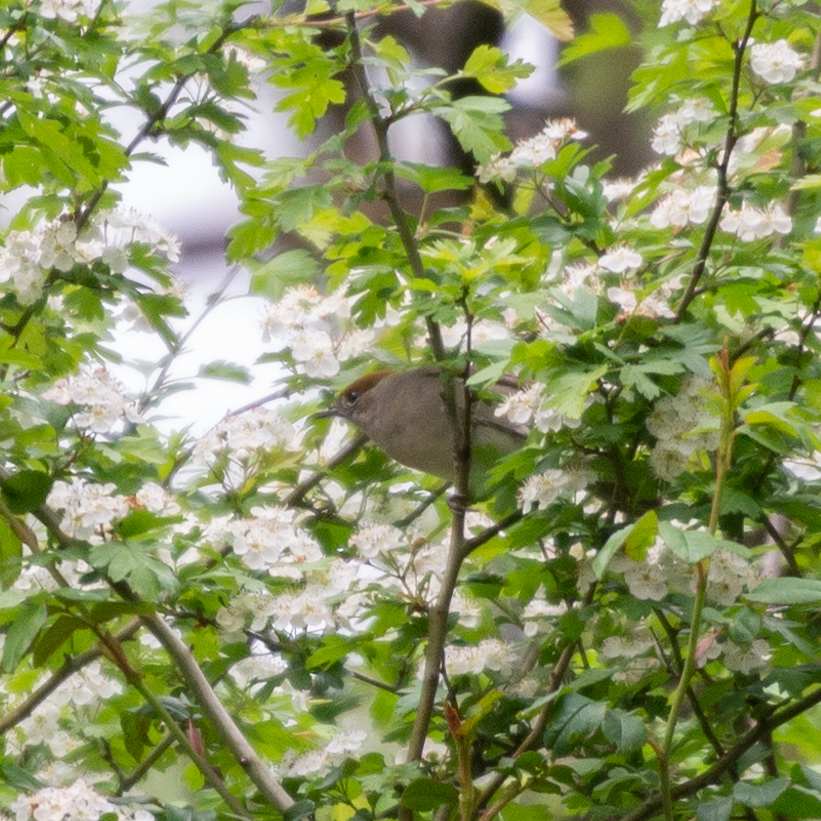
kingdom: Animalia
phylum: Chordata
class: Aves
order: Passeriformes
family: Sylviidae
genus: Sylvia
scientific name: Sylvia atricapilla
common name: Eurasian blackcap
